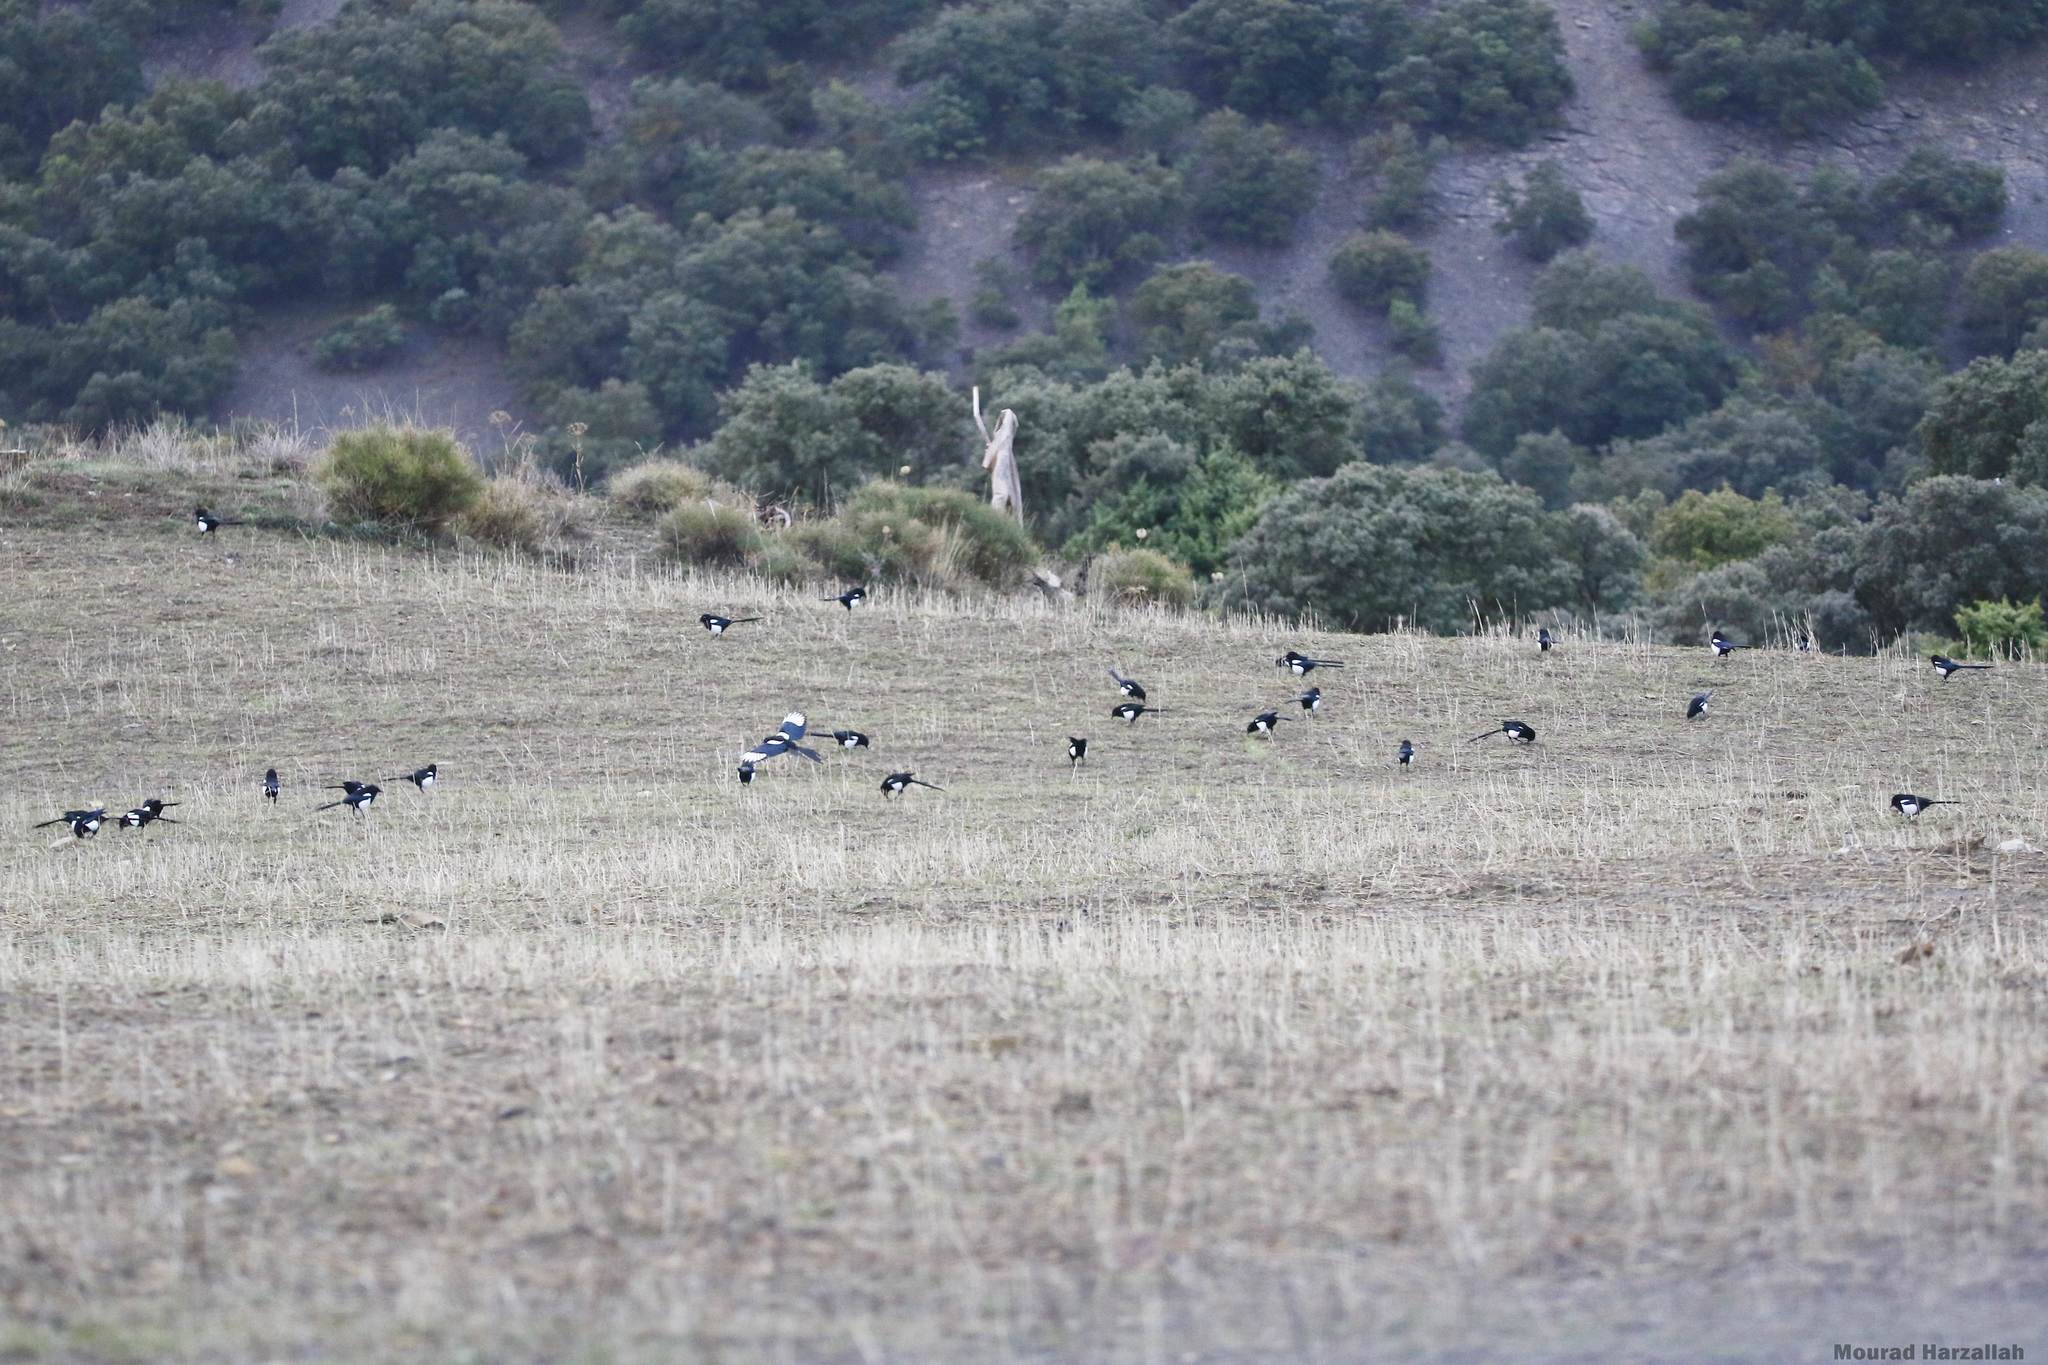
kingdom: Animalia
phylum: Chordata
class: Aves
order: Passeriformes
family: Corvidae
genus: Pica
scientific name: Pica mauritanica
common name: Maghreb magpie
